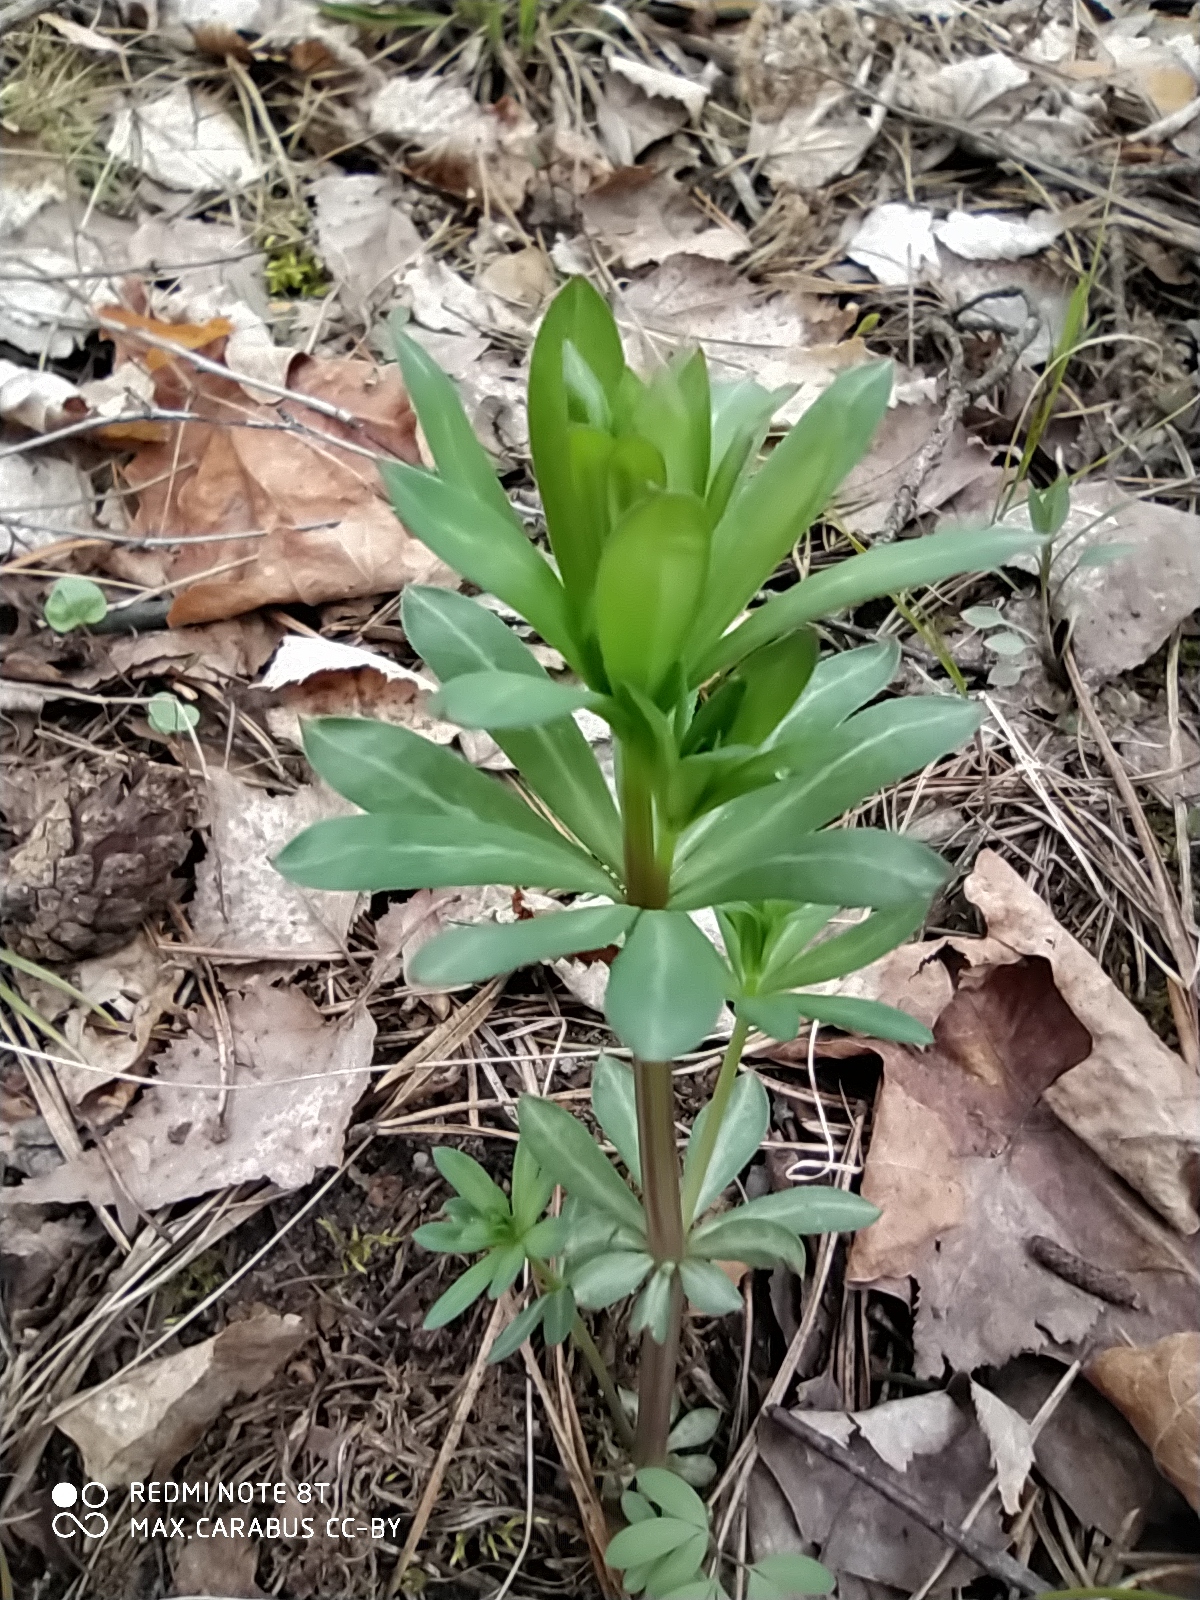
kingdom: Plantae
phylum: Tracheophyta
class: Magnoliopsida
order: Gentianales
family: Rubiaceae
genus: Galium
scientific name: Galium mollugo
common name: Hedge bedstraw
